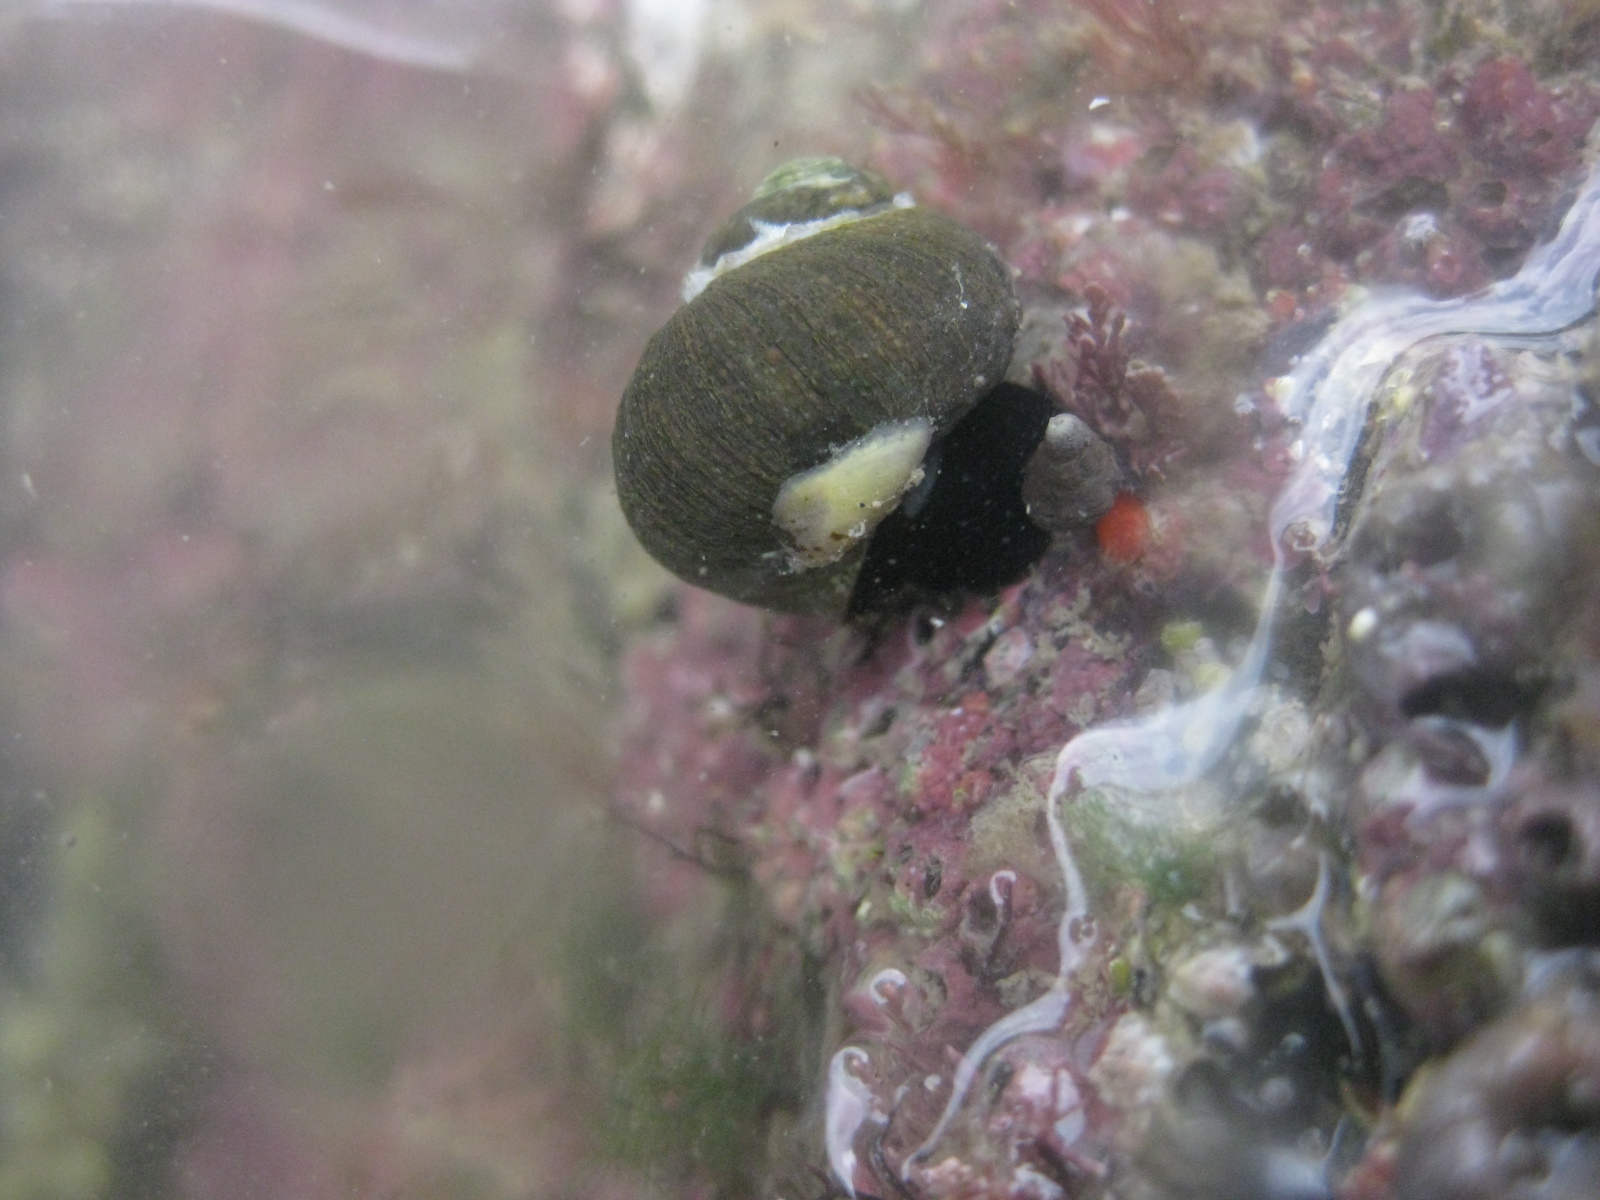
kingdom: Animalia
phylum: Mollusca
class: Gastropoda
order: Littorinimorpha
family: Calyptraeidae
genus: Maoricrypta
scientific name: Maoricrypta monoxyla
